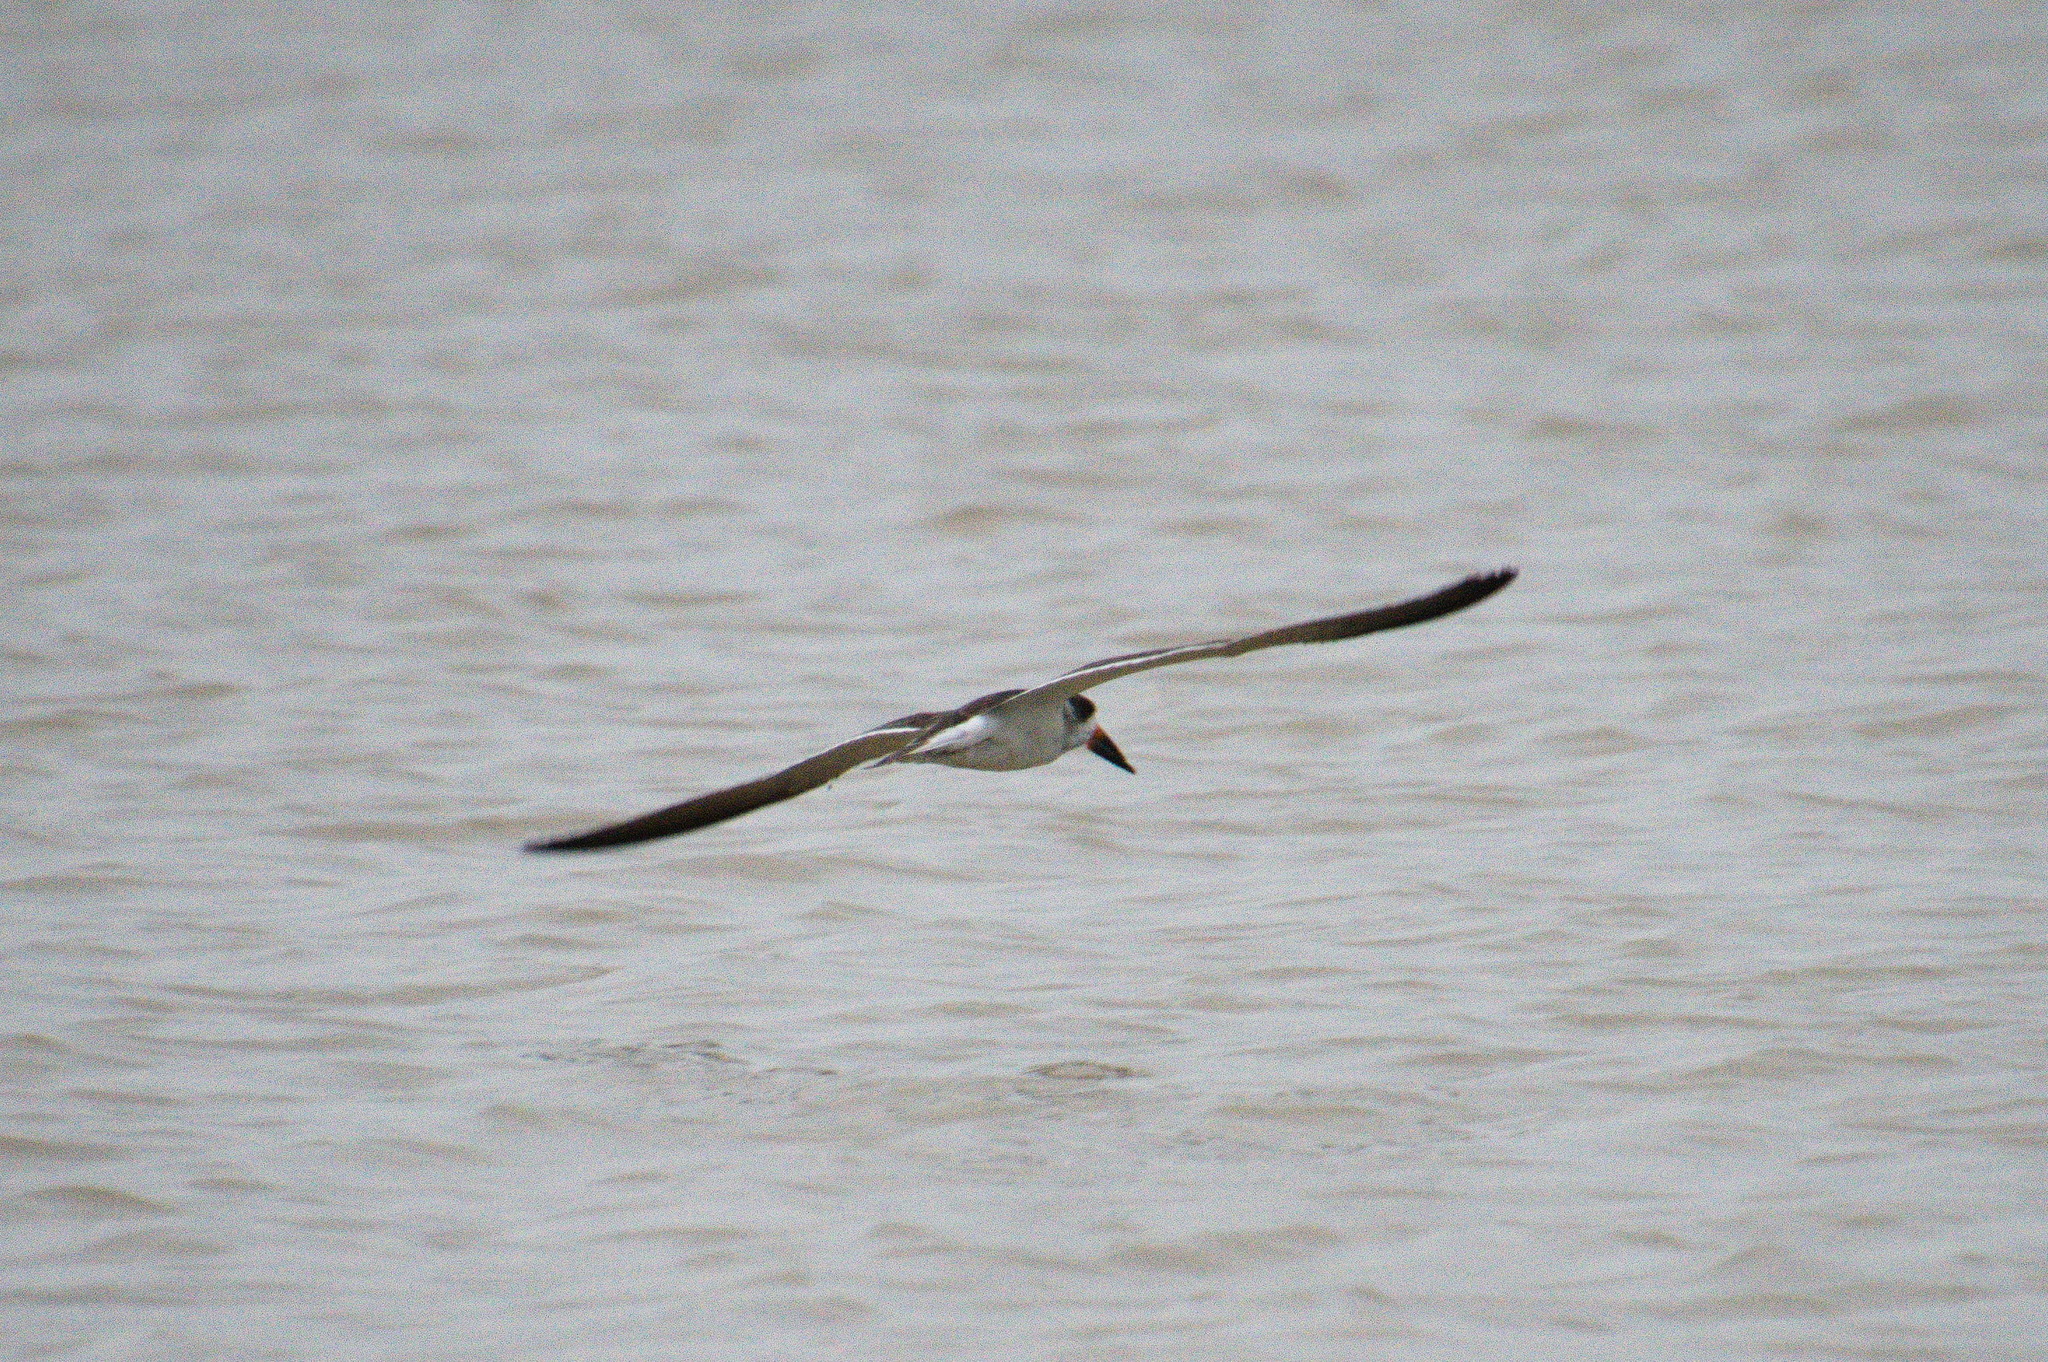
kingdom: Animalia
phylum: Chordata
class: Aves
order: Charadriiformes
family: Laridae
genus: Rynchops
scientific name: Rynchops niger
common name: Black skimmer
